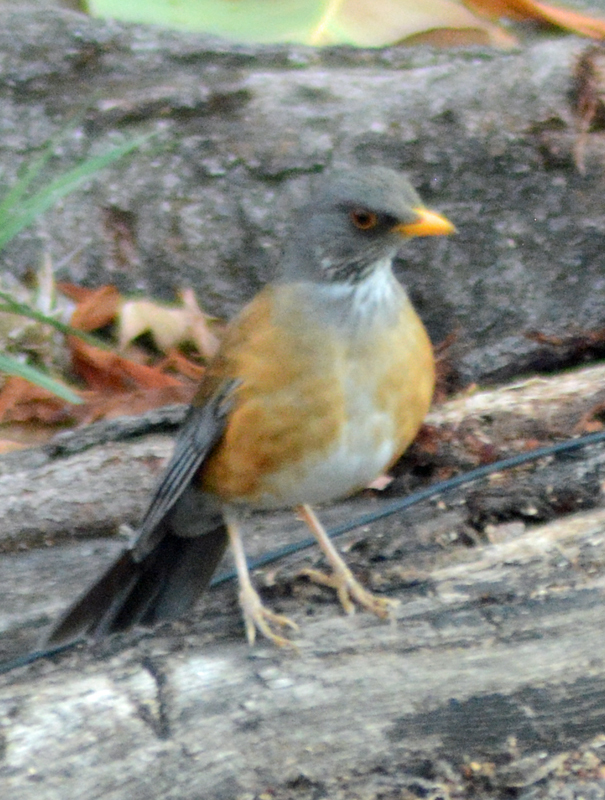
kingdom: Animalia
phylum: Chordata
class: Aves
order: Passeriformes
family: Turdidae
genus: Turdus
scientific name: Turdus rufopalliatus
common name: Rufous-backed robin
